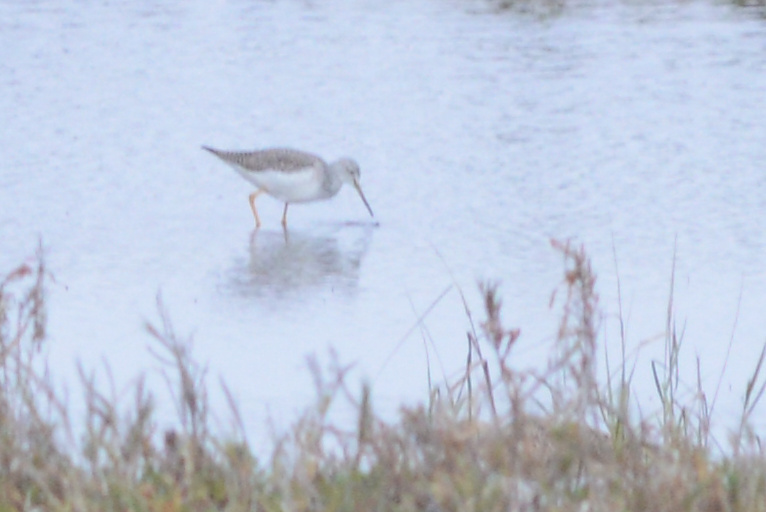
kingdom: Animalia
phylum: Chordata
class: Aves
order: Charadriiformes
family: Scolopacidae
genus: Tringa
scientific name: Tringa melanoleuca
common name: Greater yellowlegs
